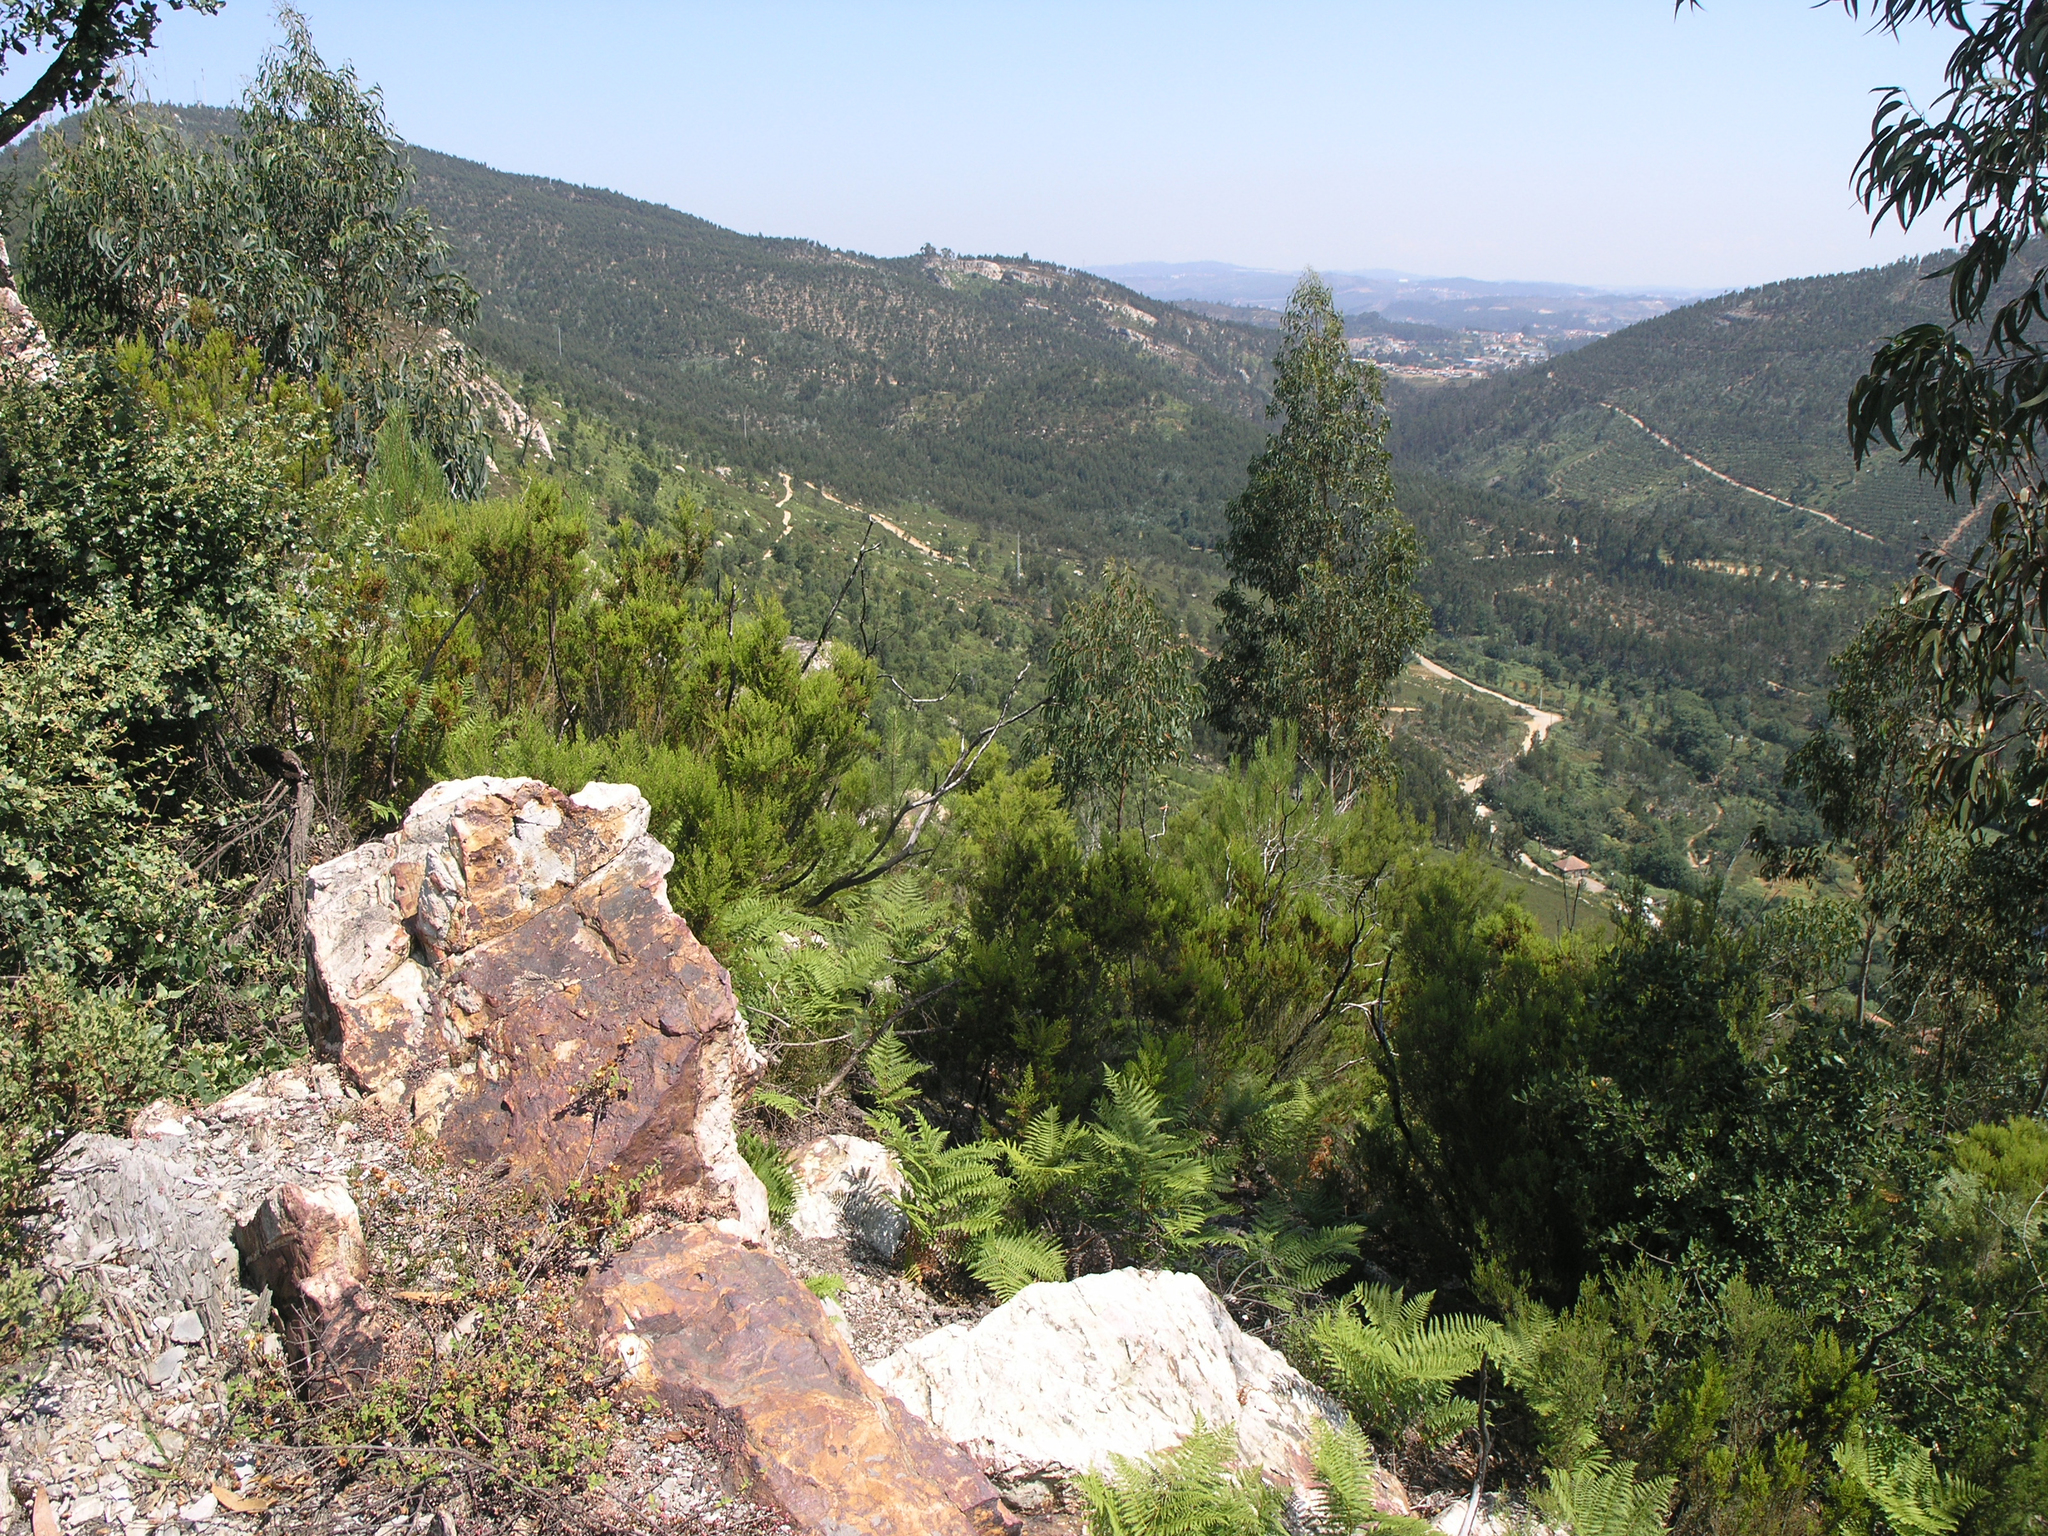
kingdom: Plantae
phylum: Tracheophyta
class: Polypodiopsida
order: Polypodiales
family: Dennstaedtiaceae
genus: Pteridium
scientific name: Pteridium aquilinum
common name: Bracken
